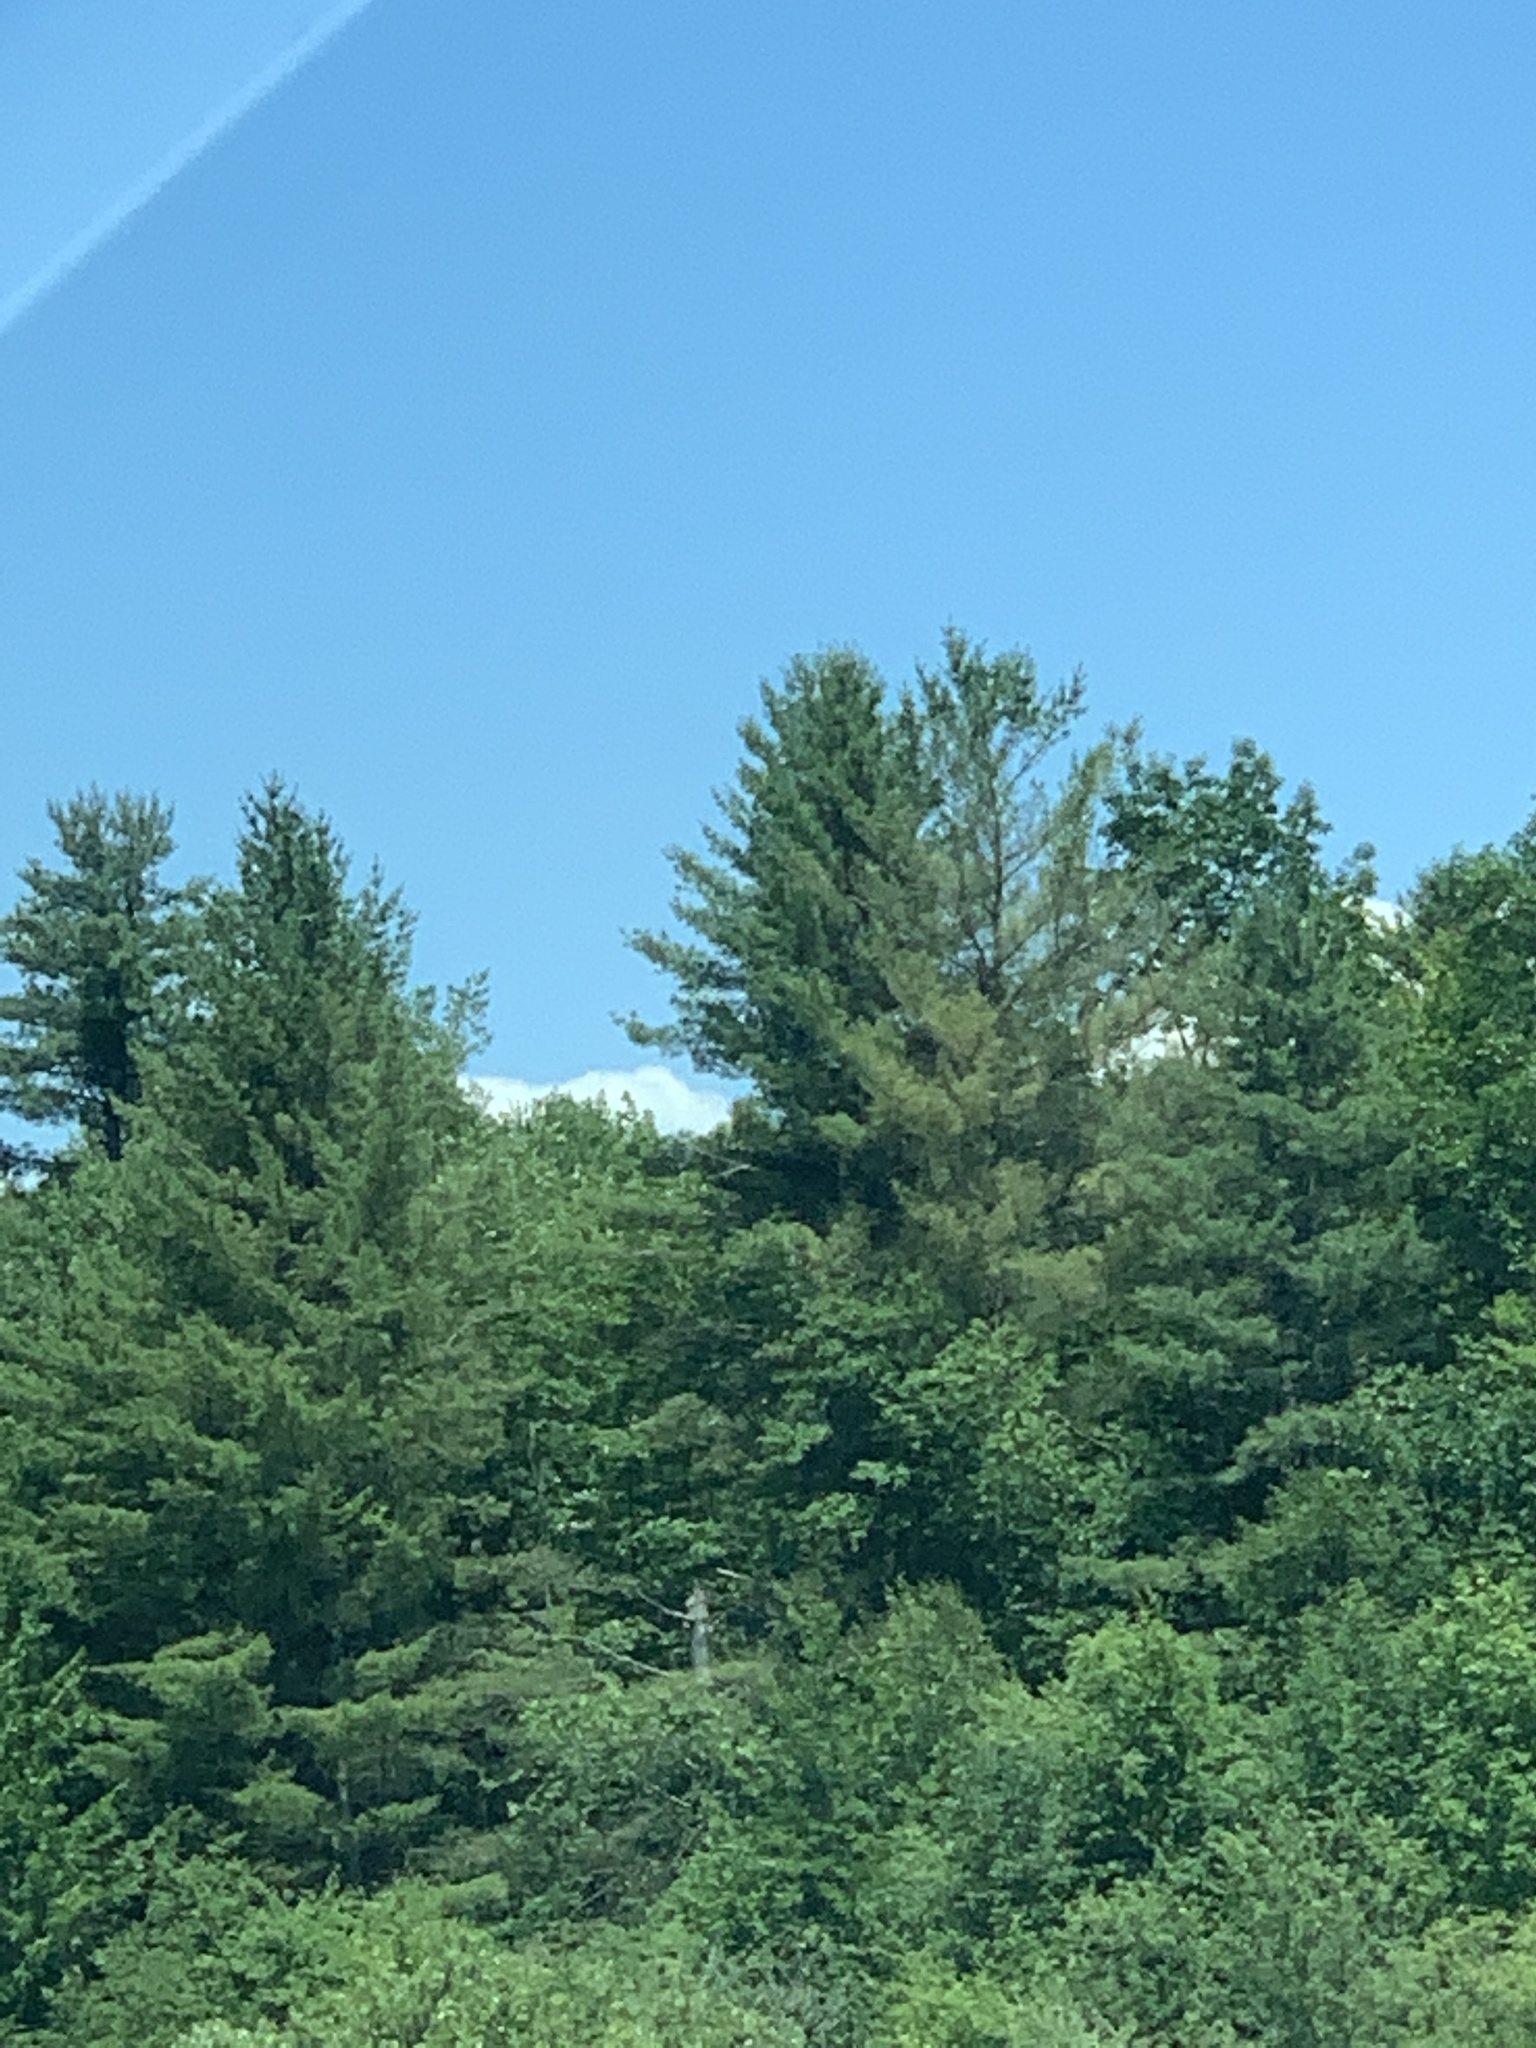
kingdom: Plantae
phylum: Tracheophyta
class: Pinopsida
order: Pinales
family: Pinaceae
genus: Pinus
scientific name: Pinus strobus
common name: Weymouth pine
